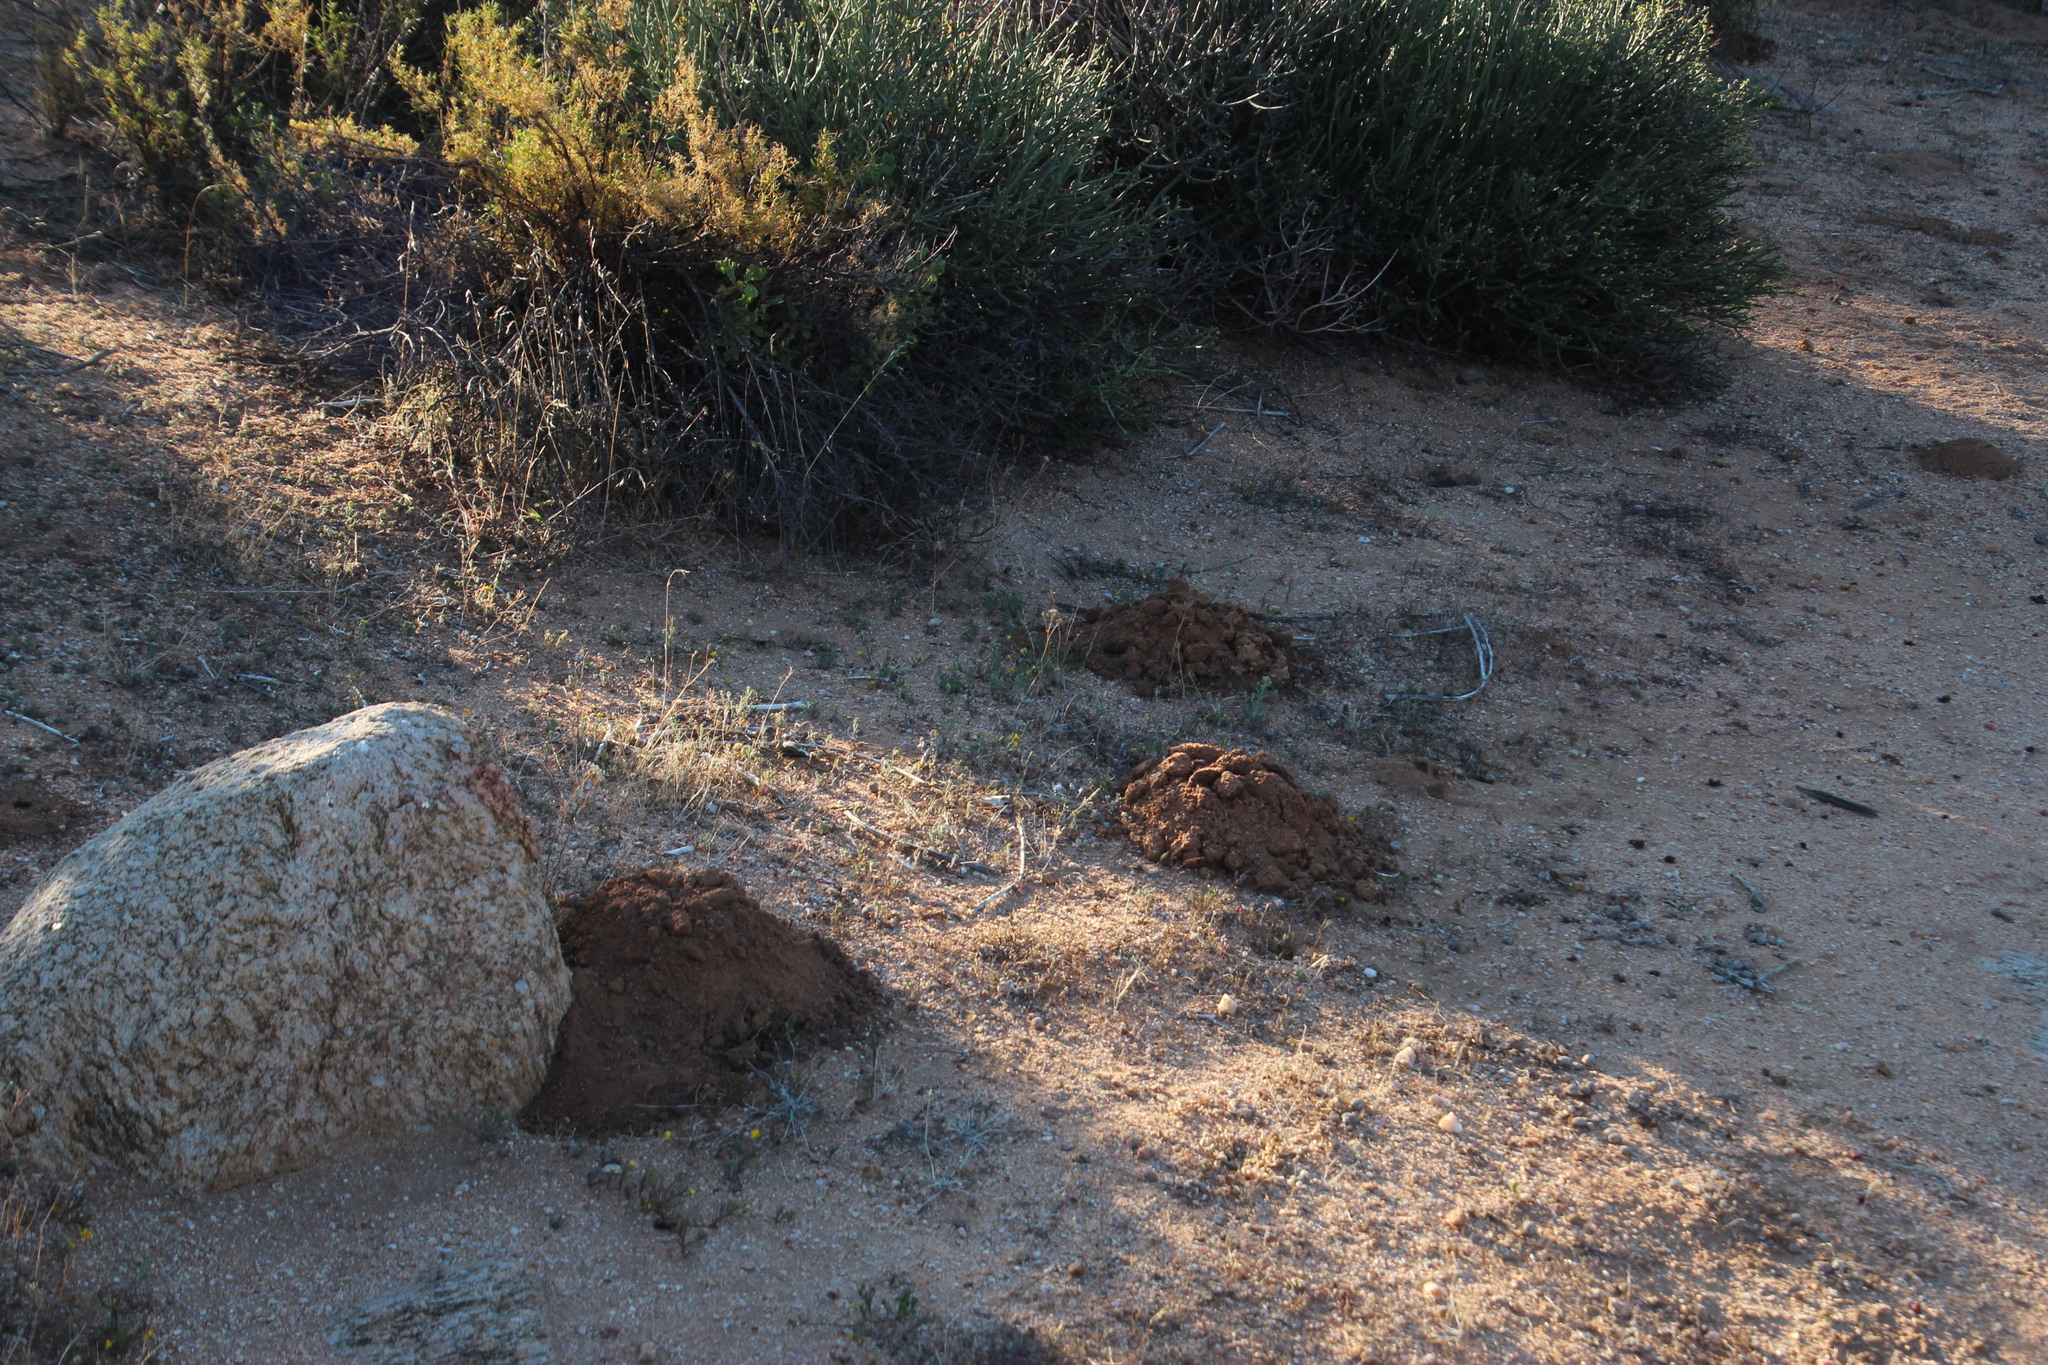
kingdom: Animalia
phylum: Chordata
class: Mammalia
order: Rodentia
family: Bathyergidae
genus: Cryptomys
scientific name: Cryptomys hottentotus
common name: Southern african mole-rat
